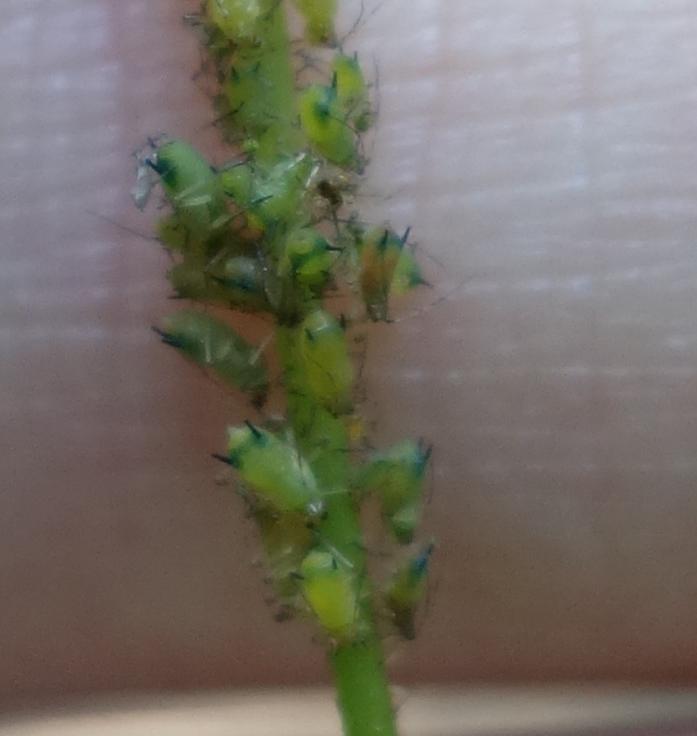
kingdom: Animalia
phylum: Arthropoda
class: Insecta
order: Hemiptera
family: Aphididae
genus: Impatientinum
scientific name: Impatientinum asiaticum
